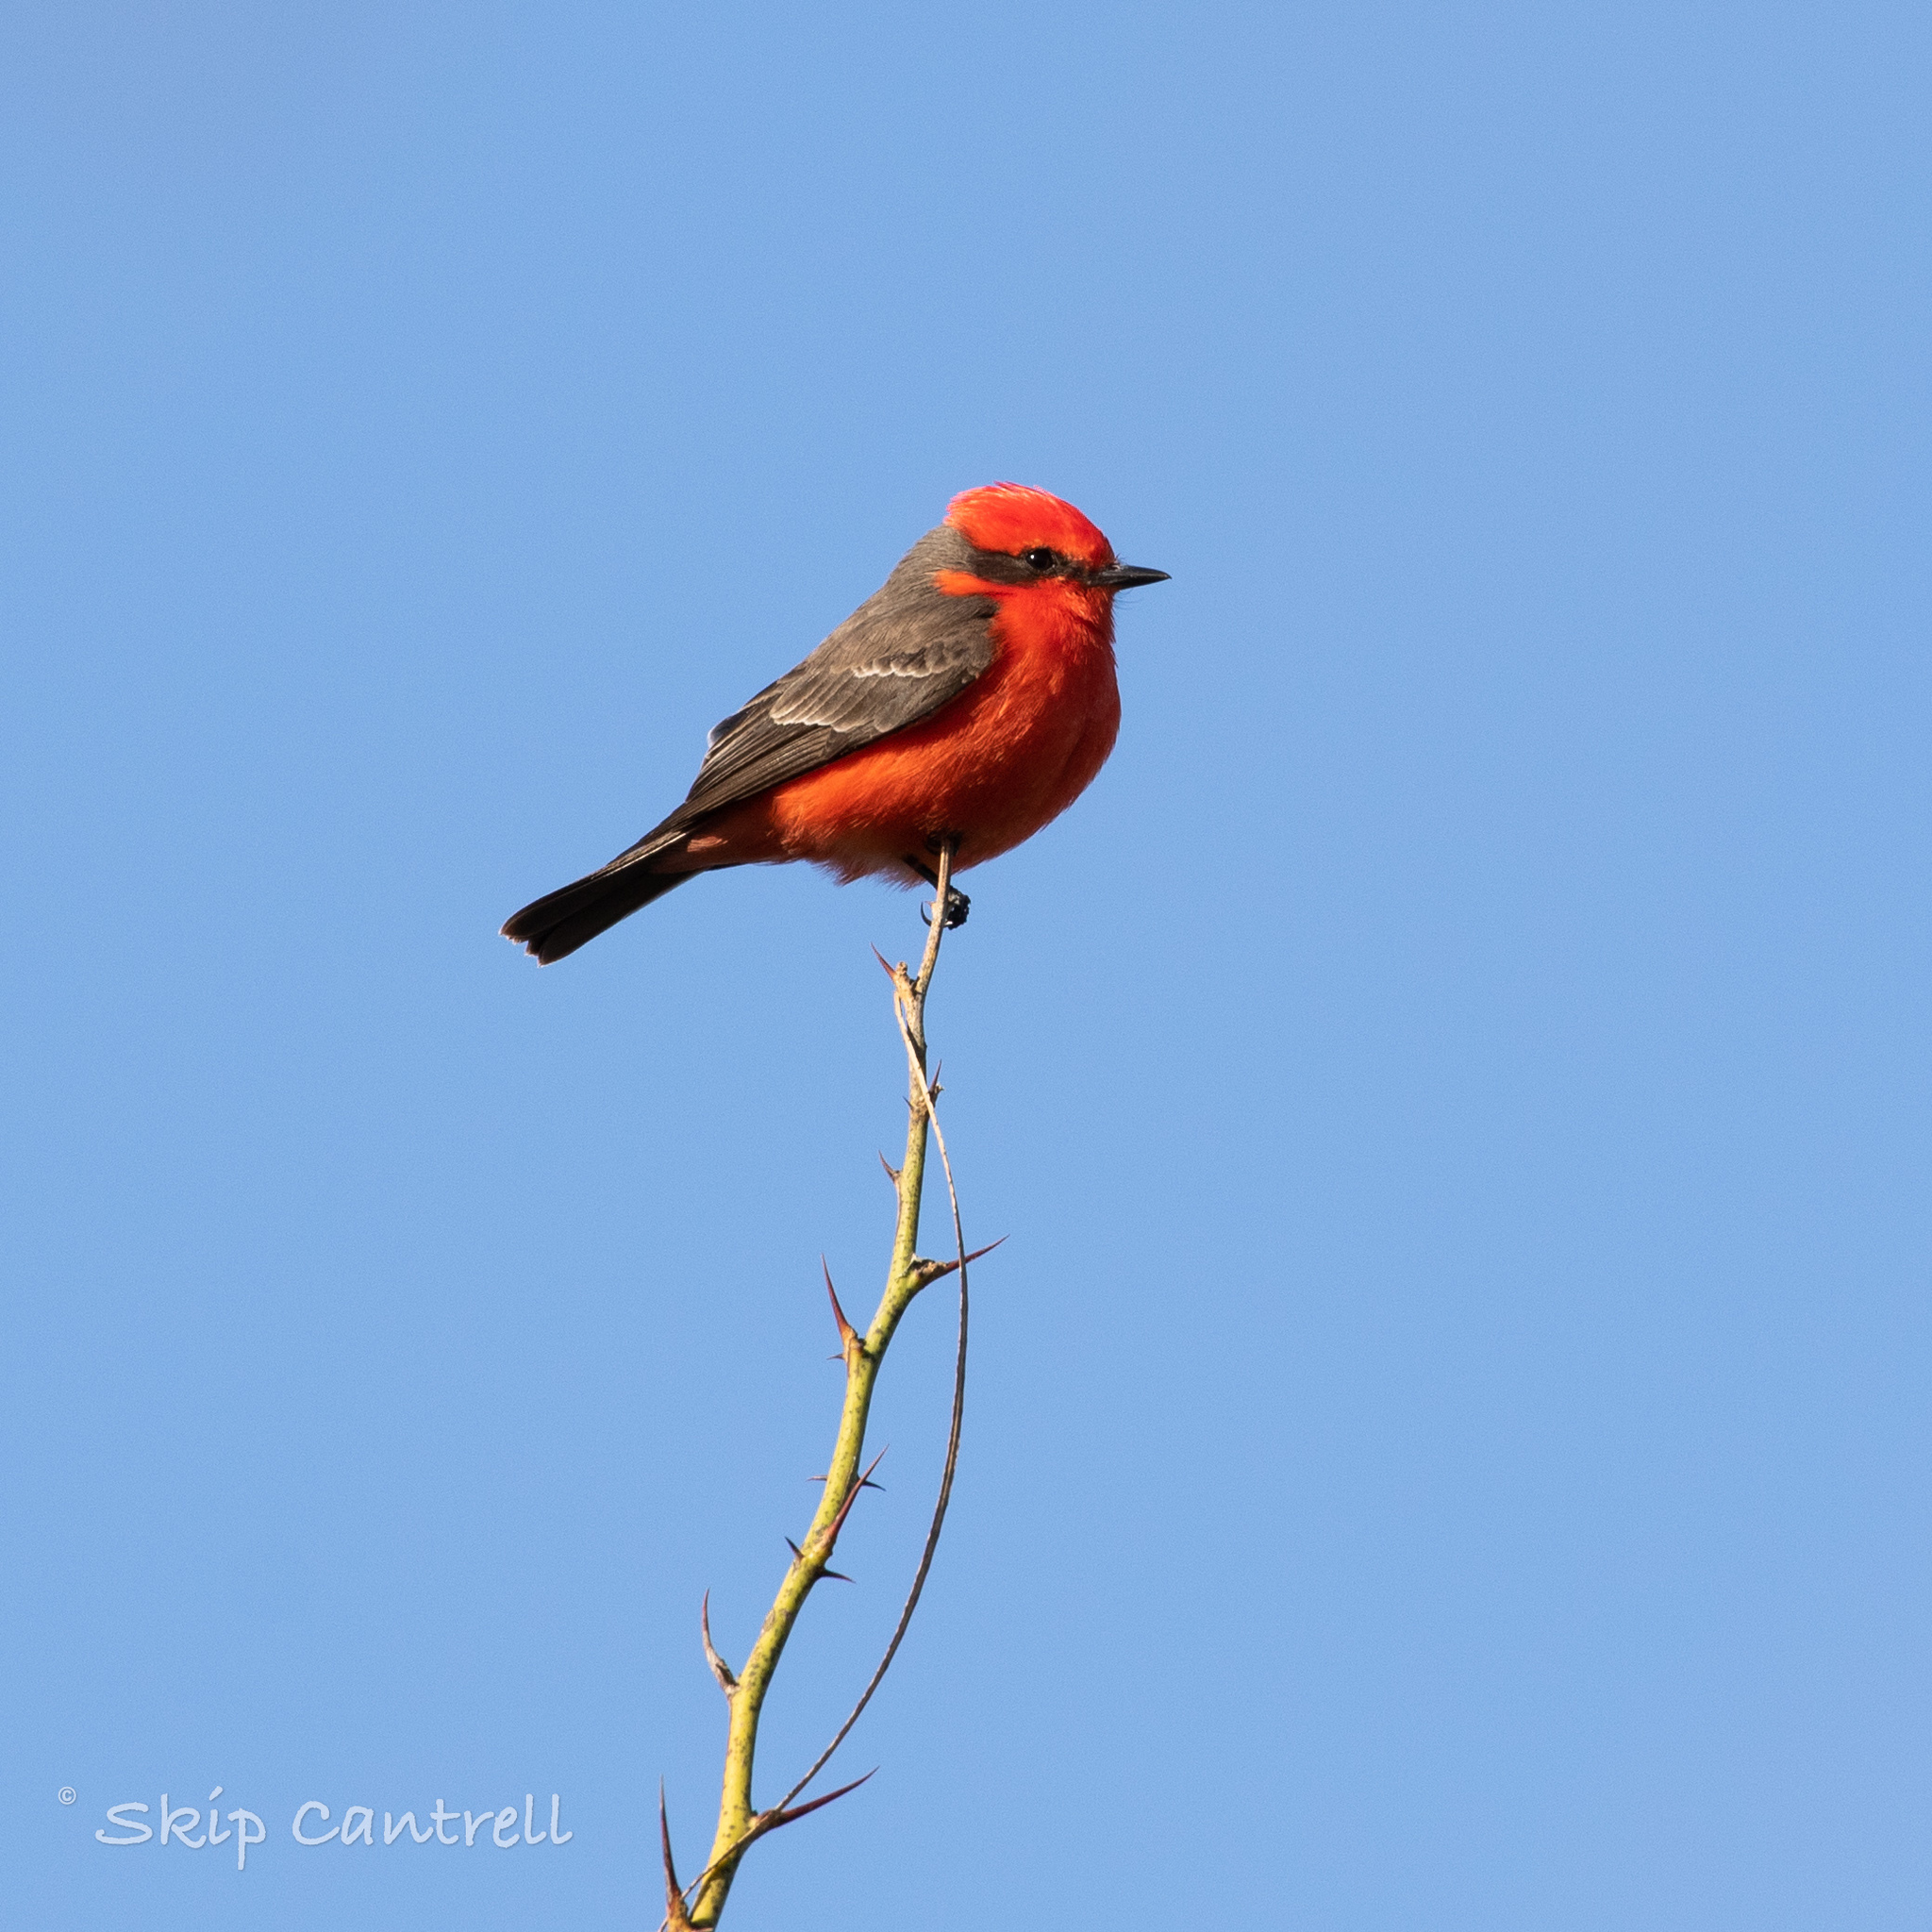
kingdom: Animalia
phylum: Chordata
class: Aves
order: Passeriformes
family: Tyrannidae
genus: Pyrocephalus
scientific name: Pyrocephalus rubinus
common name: Vermilion flycatcher
